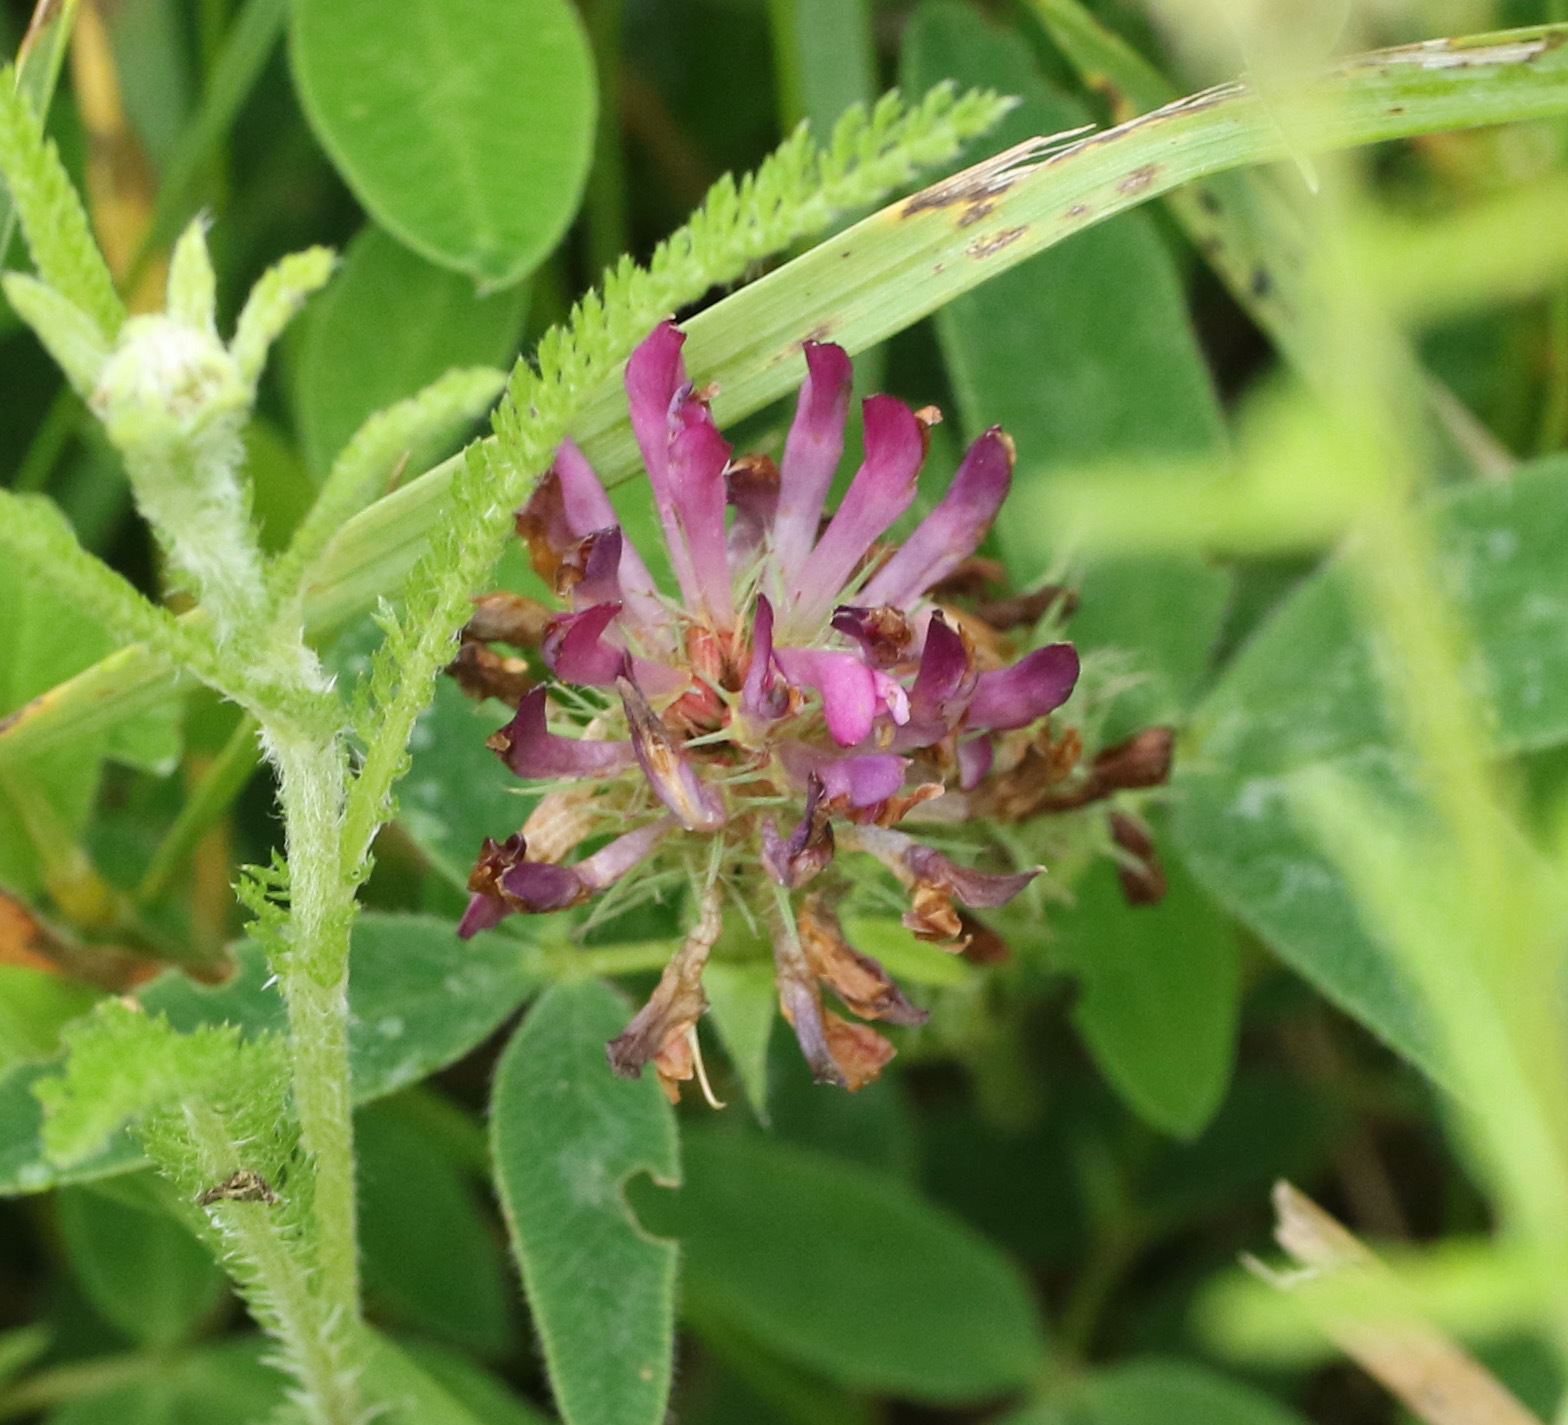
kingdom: Plantae
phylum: Tracheophyta
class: Magnoliopsida
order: Fabales
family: Fabaceae
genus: Trifolium
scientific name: Trifolium pratense
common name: Red clover
